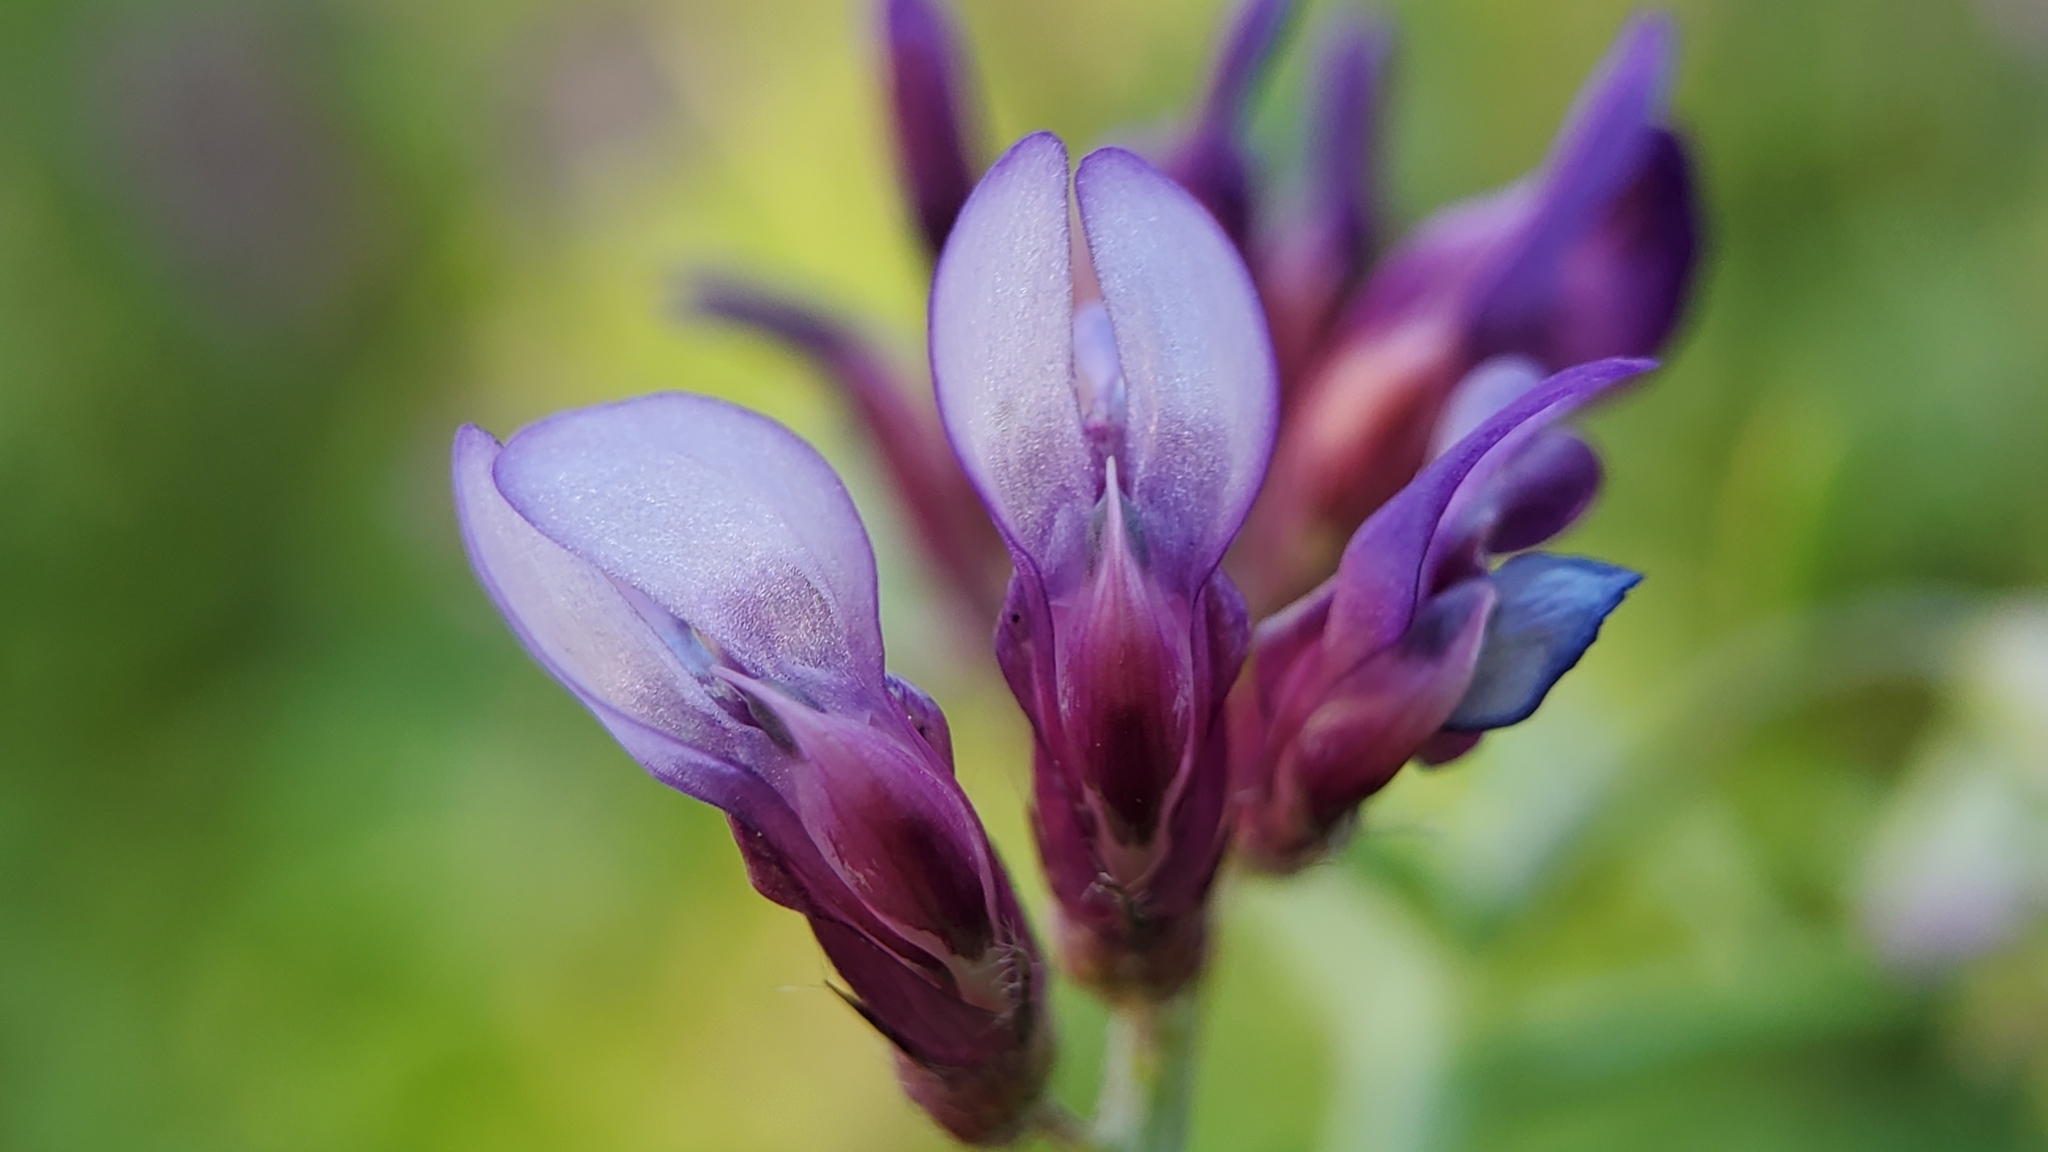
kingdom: Plantae
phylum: Tracheophyta
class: Magnoliopsida
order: Fabales
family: Fabaceae
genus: Vicia
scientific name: Vicia villosa
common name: Fodder vetch
